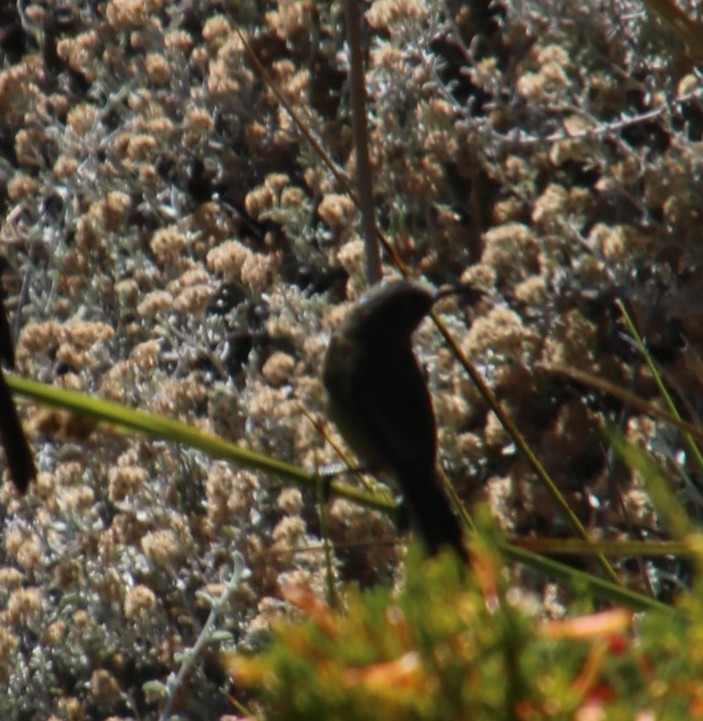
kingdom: Animalia
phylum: Chordata
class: Aves
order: Passeriformes
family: Nectariniidae
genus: Anthobaphes
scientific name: Anthobaphes violacea
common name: Orange-breasted sunbird
